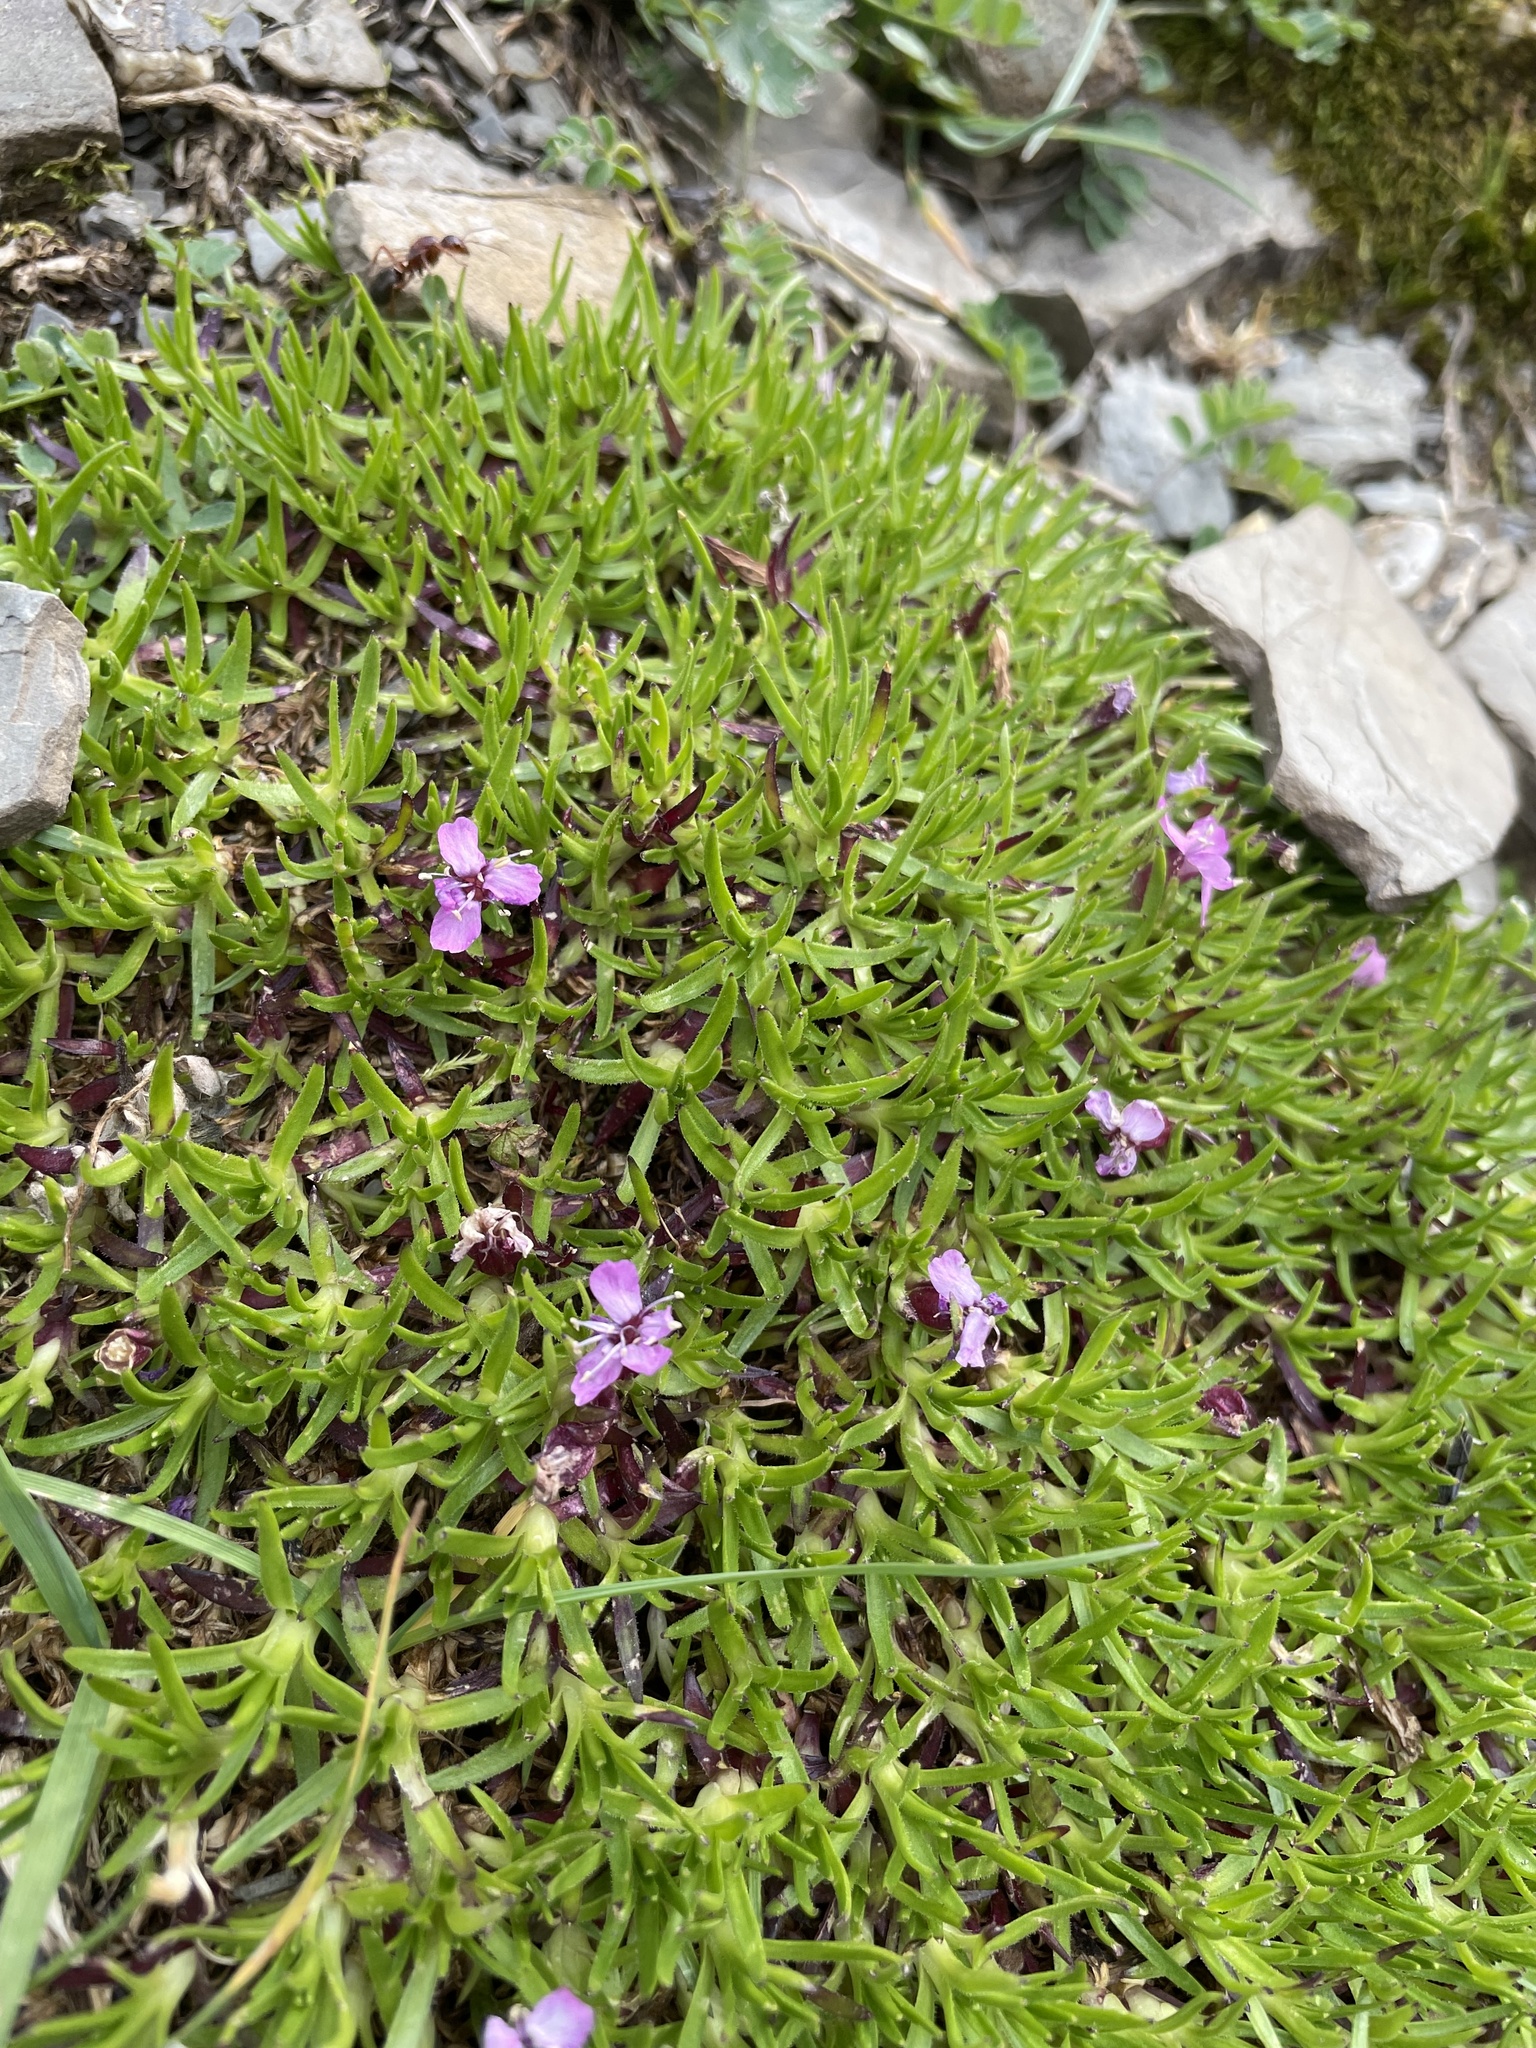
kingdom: Plantae
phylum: Tracheophyta
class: Magnoliopsida
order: Caryophyllales
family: Caryophyllaceae
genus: Silene
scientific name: Silene acaulis
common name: Moss campion
